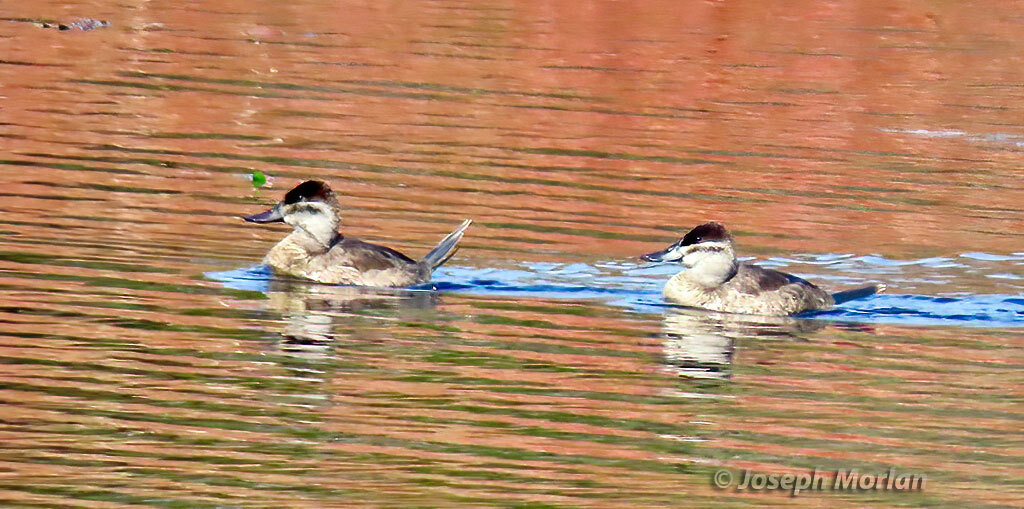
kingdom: Animalia
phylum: Chordata
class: Aves
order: Anseriformes
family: Anatidae
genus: Oxyura
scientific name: Oxyura jamaicensis
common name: Ruddy duck
